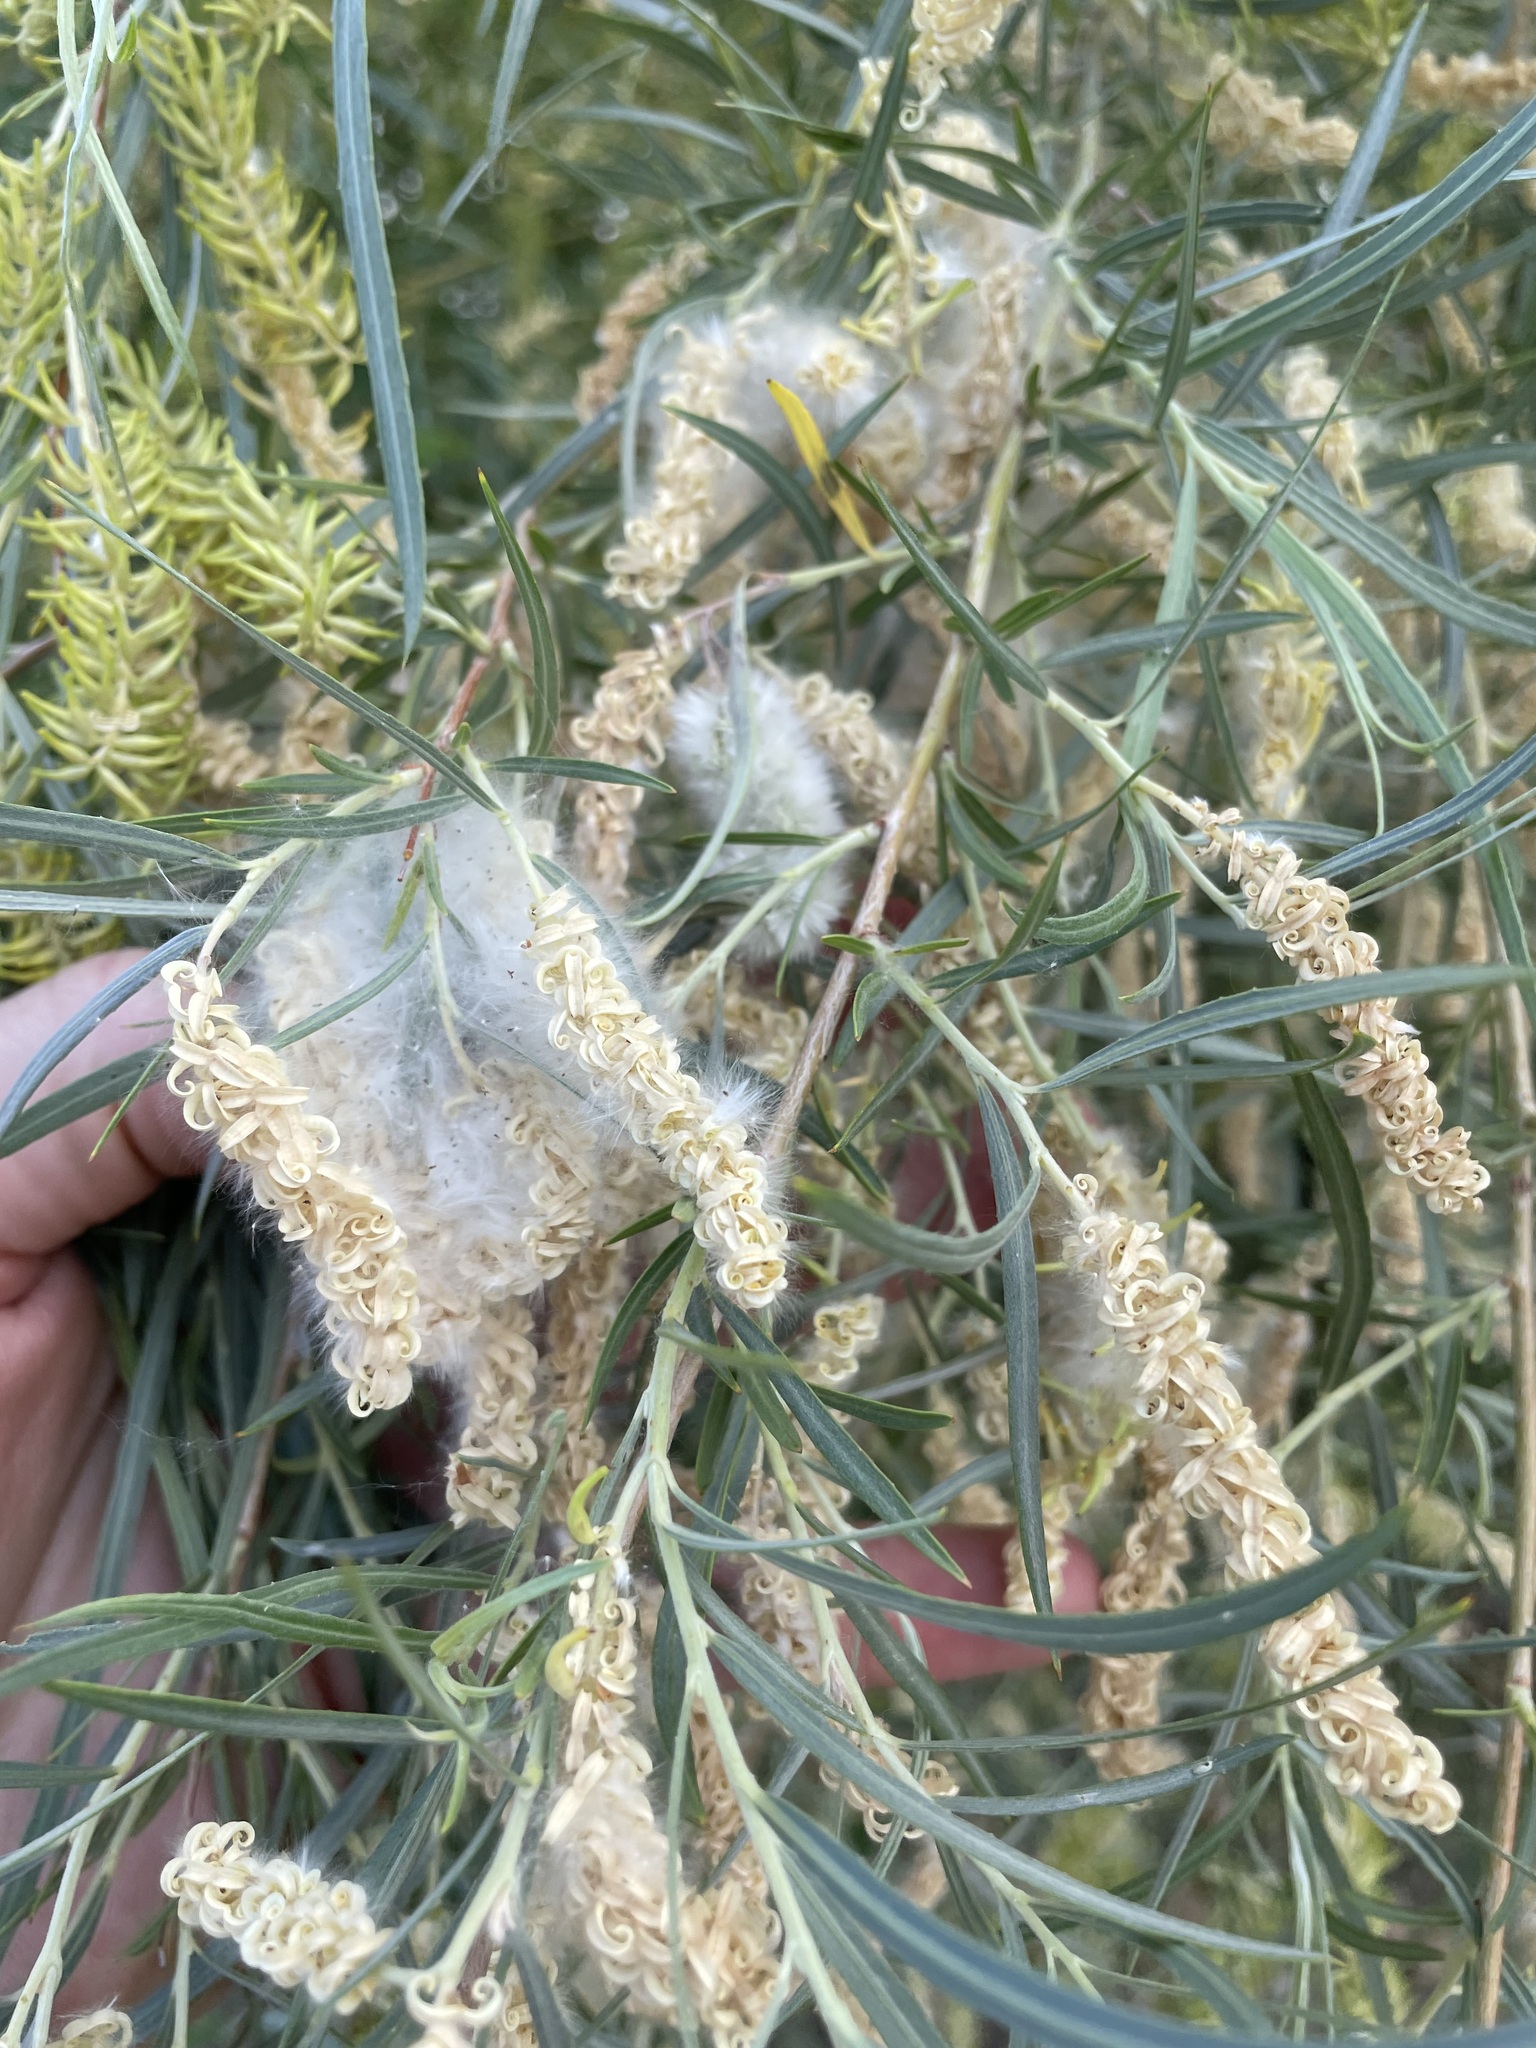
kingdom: Plantae
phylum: Tracheophyta
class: Magnoliopsida
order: Malpighiales
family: Salicaceae
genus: Salix
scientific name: Salix exigua
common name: Coyote willow
